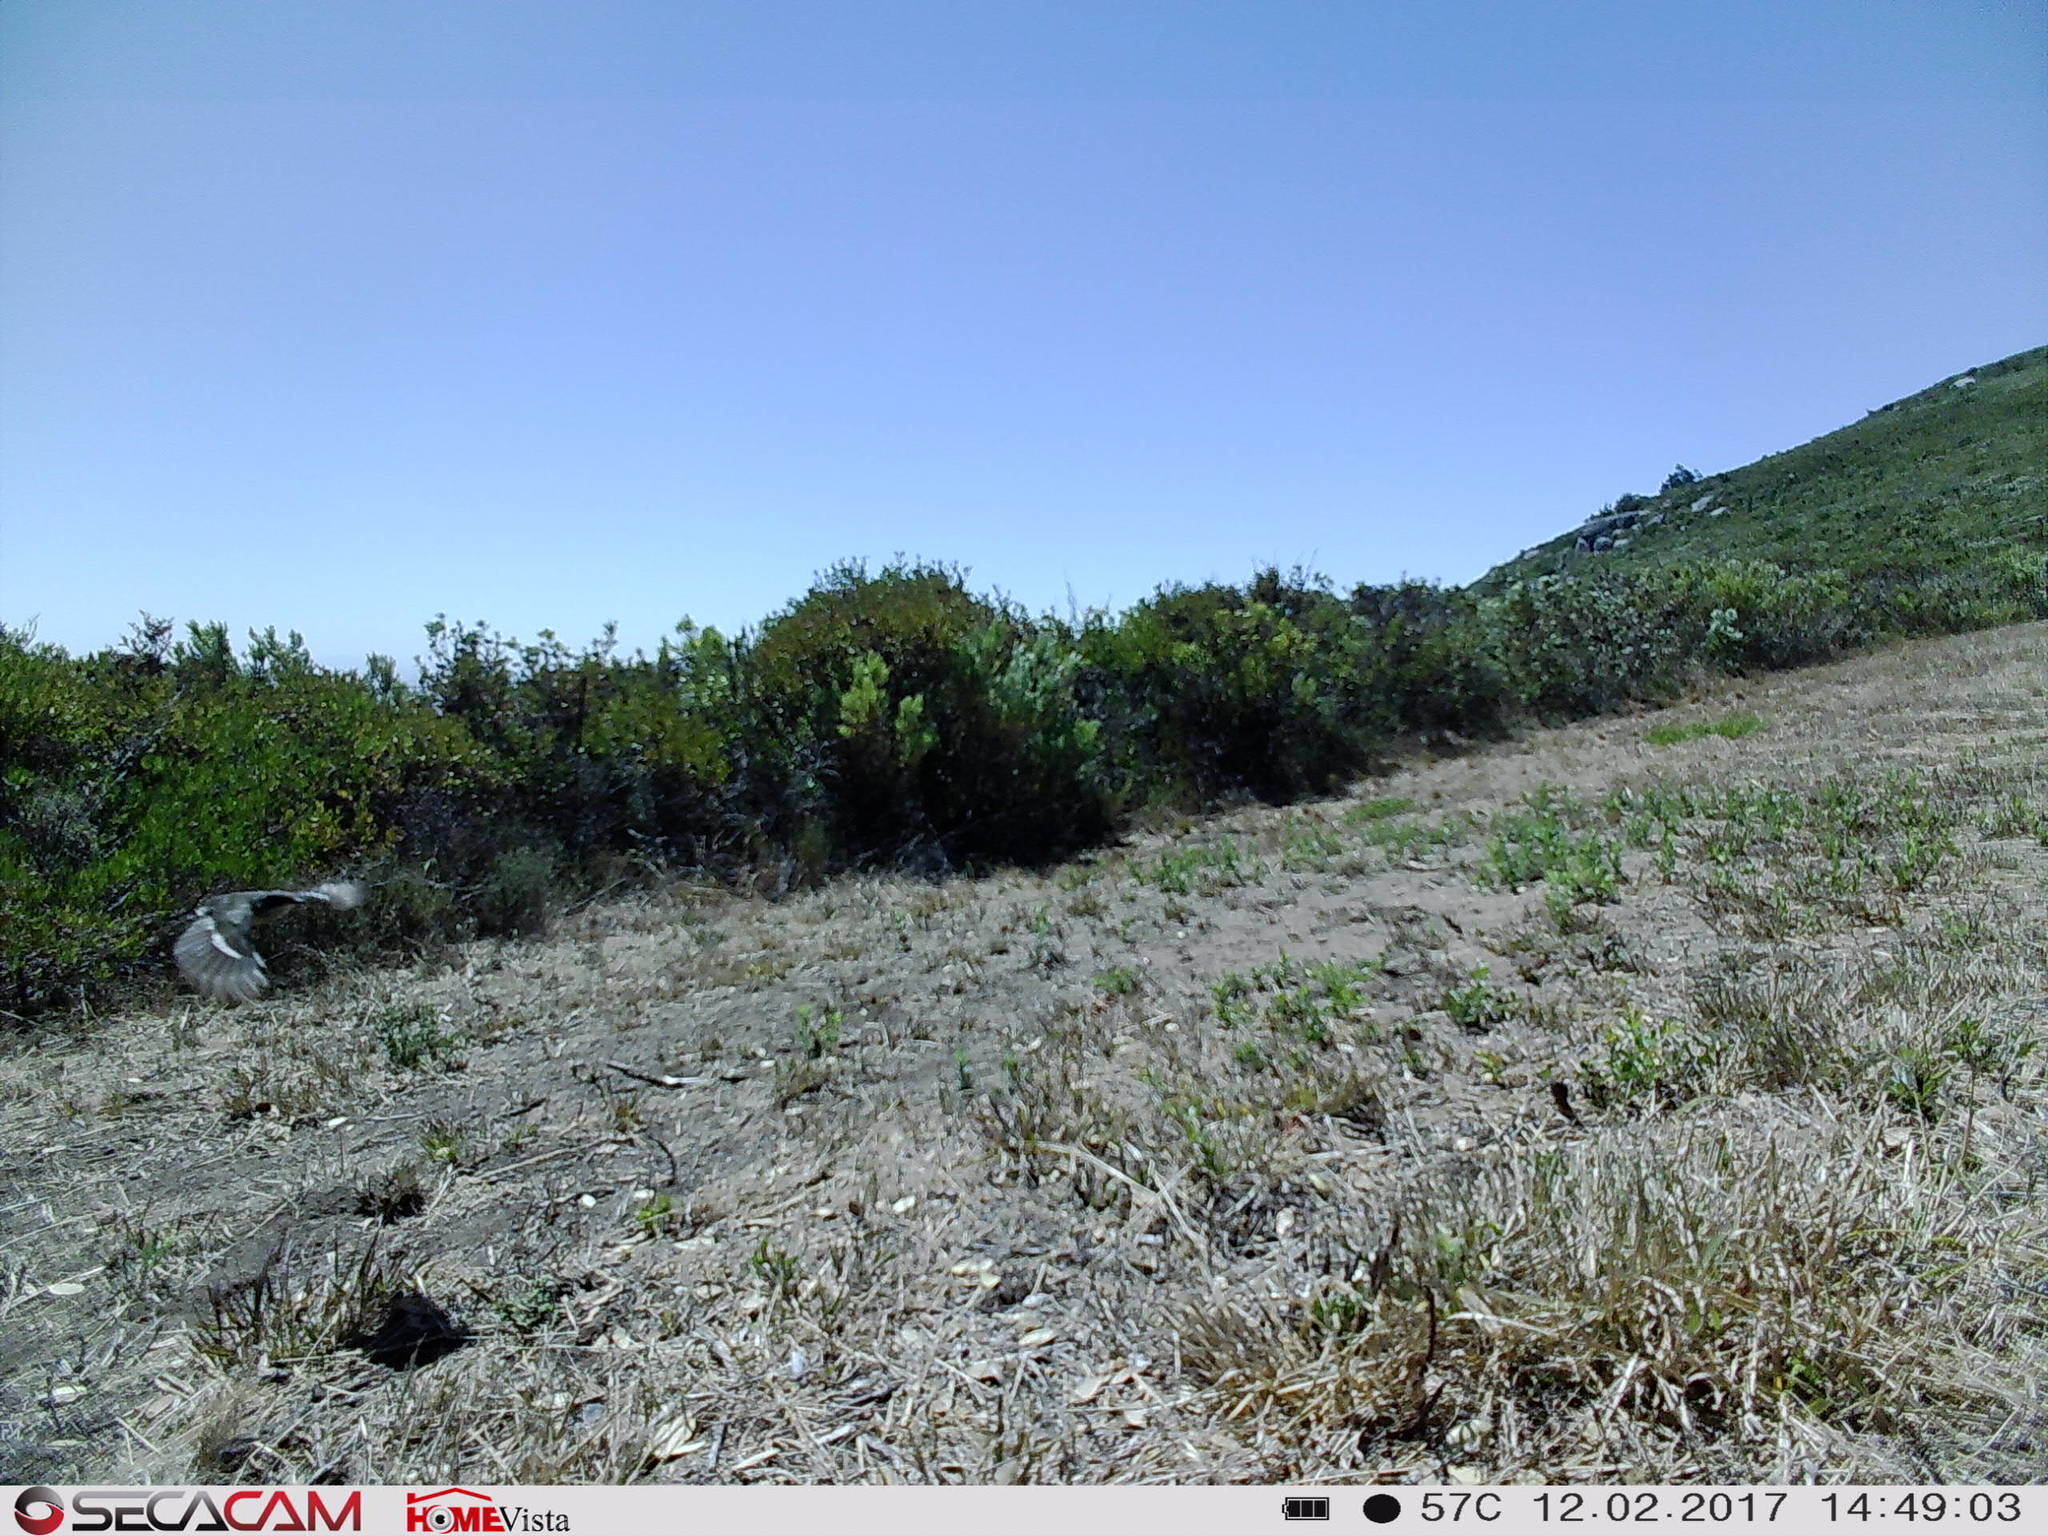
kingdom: Animalia
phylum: Chordata
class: Aves
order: Passeriformes
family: Muscicapidae
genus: Sigelus
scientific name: Sigelus silens
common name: Fiscal flycatcher
